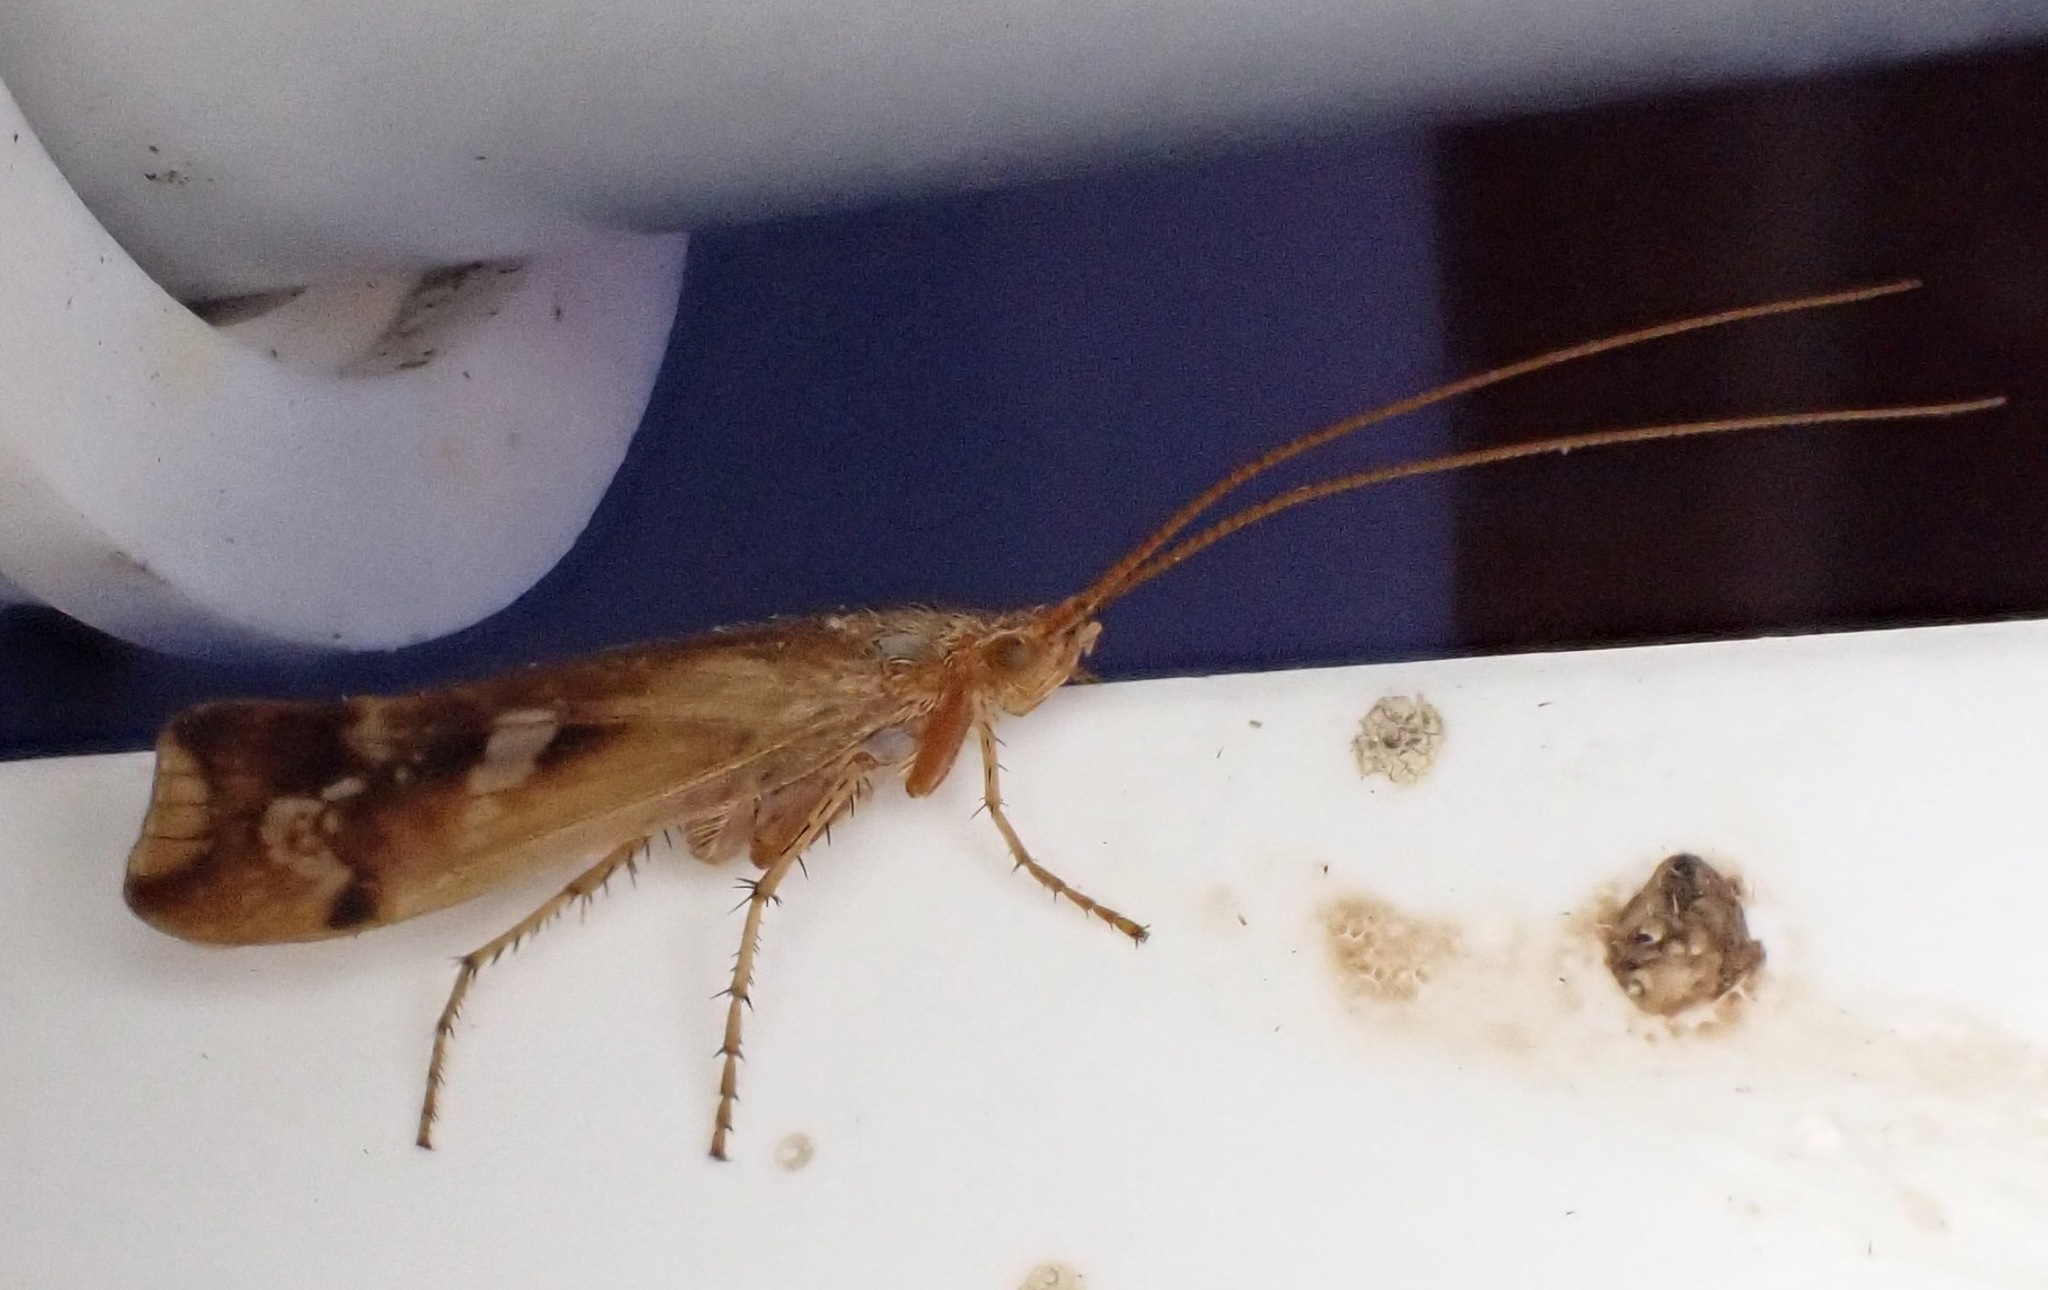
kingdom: Animalia
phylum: Arthropoda
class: Insecta
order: Trichoptera
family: Limnephilidae
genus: Limnephilus
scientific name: Limnephilus lunatus
